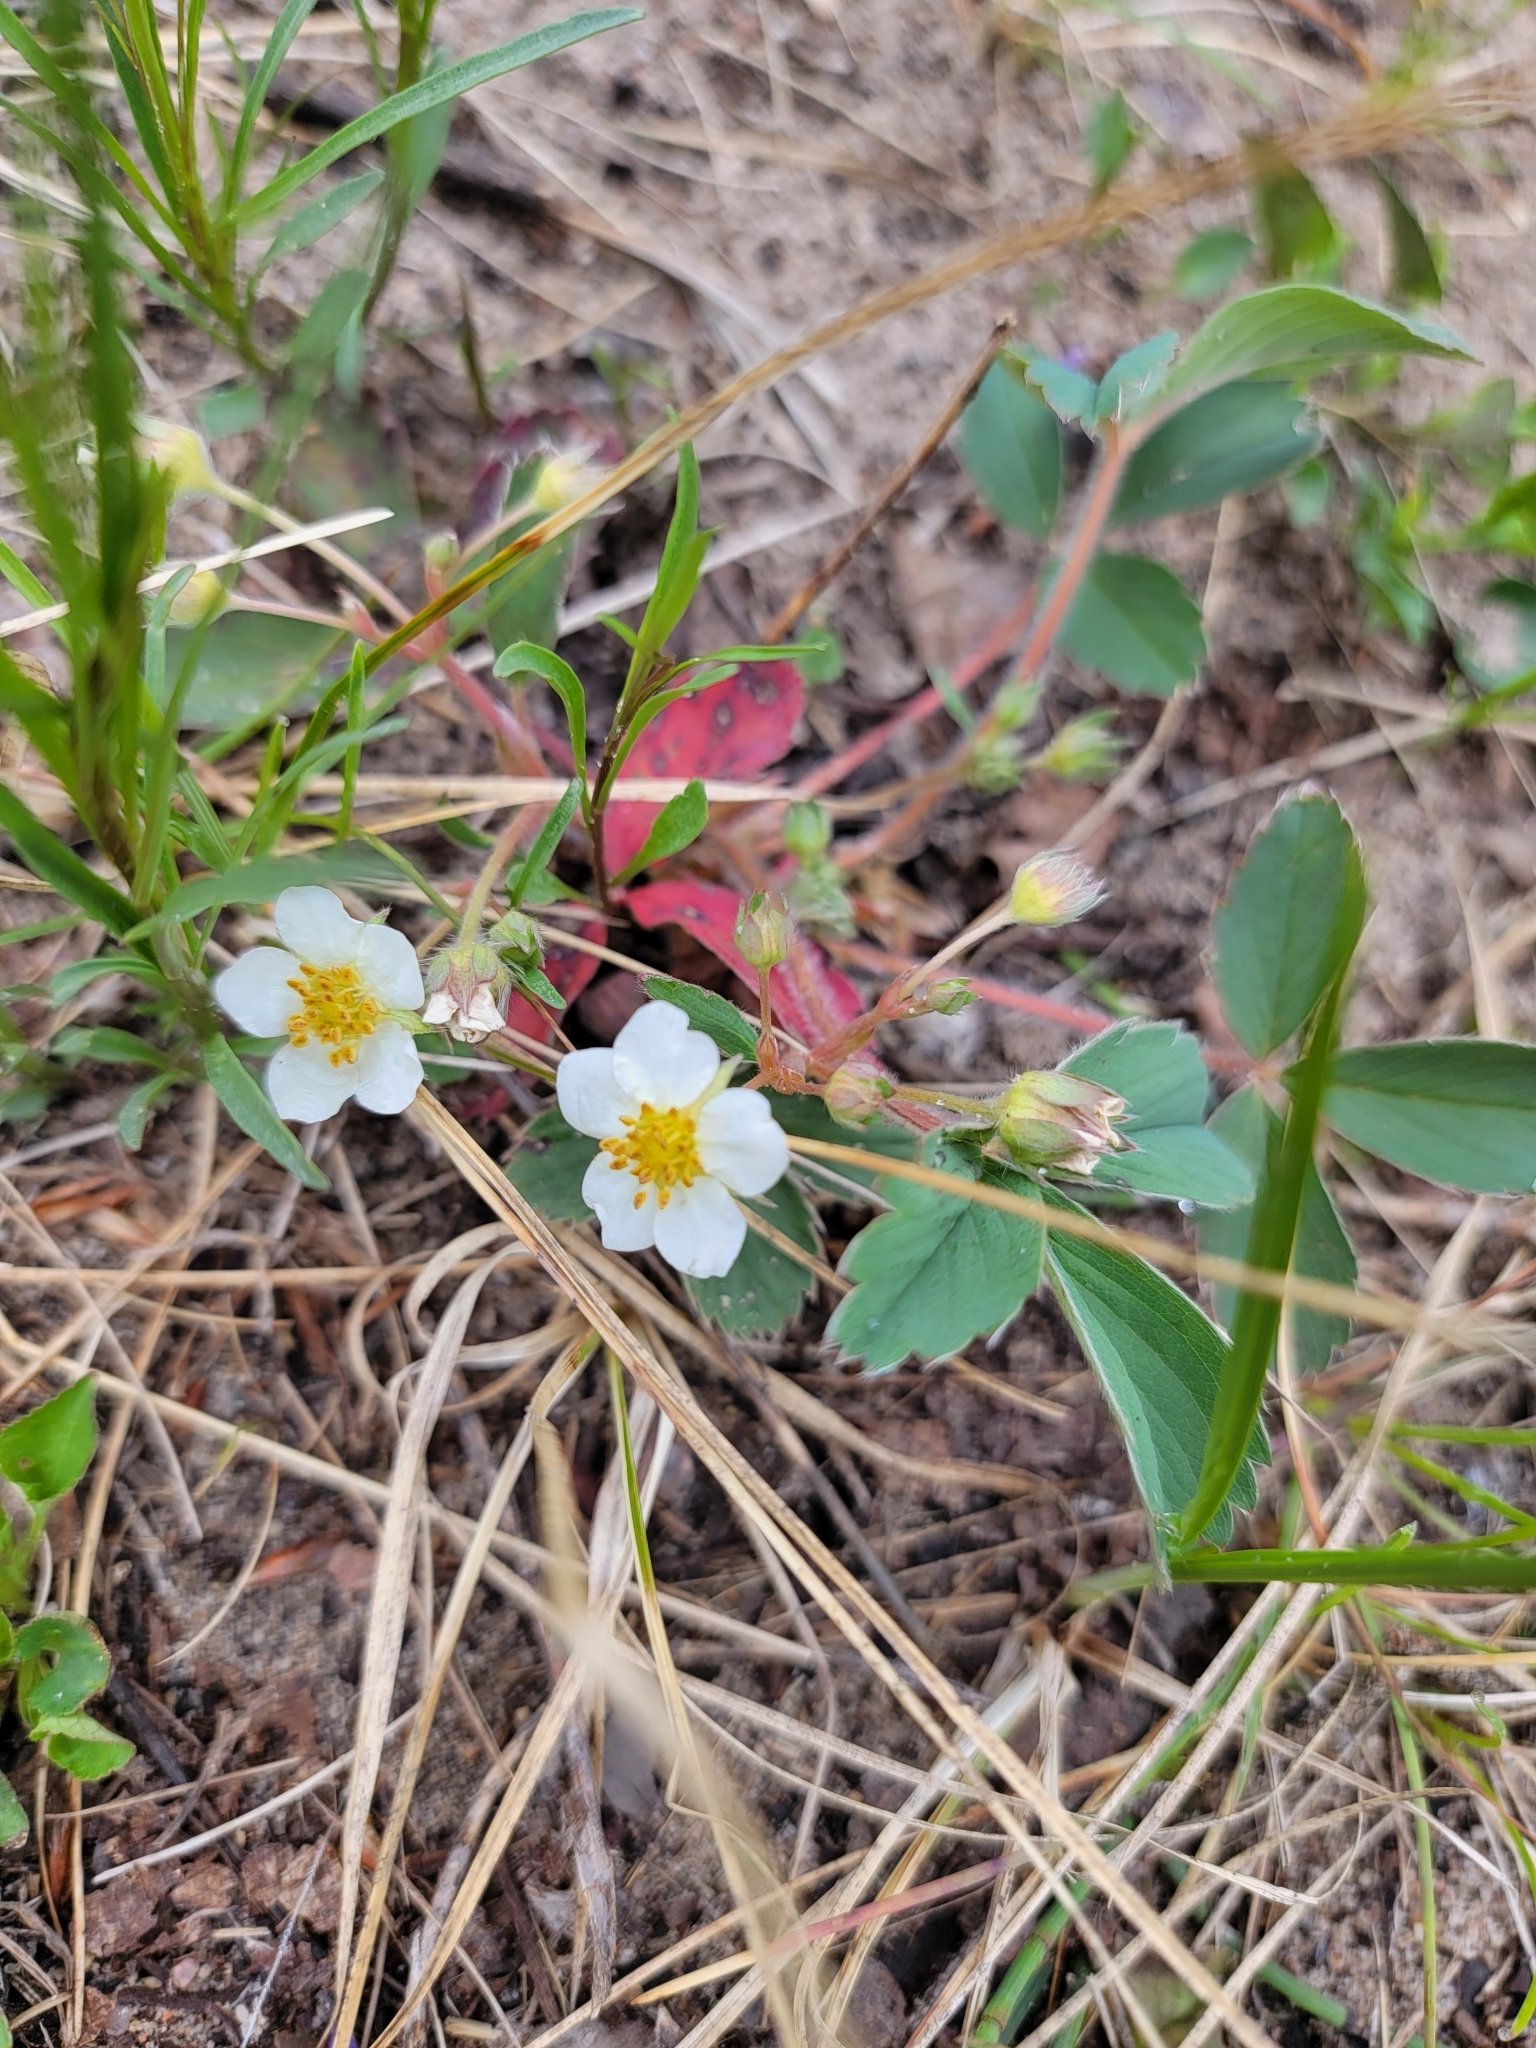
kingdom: Plantae
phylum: Tracheophyta
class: Magnoliopsida
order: Rosales
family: Rosaceae
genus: Fragaria
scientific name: Fragaria virginiana
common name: Thickleaved wild strawberry
